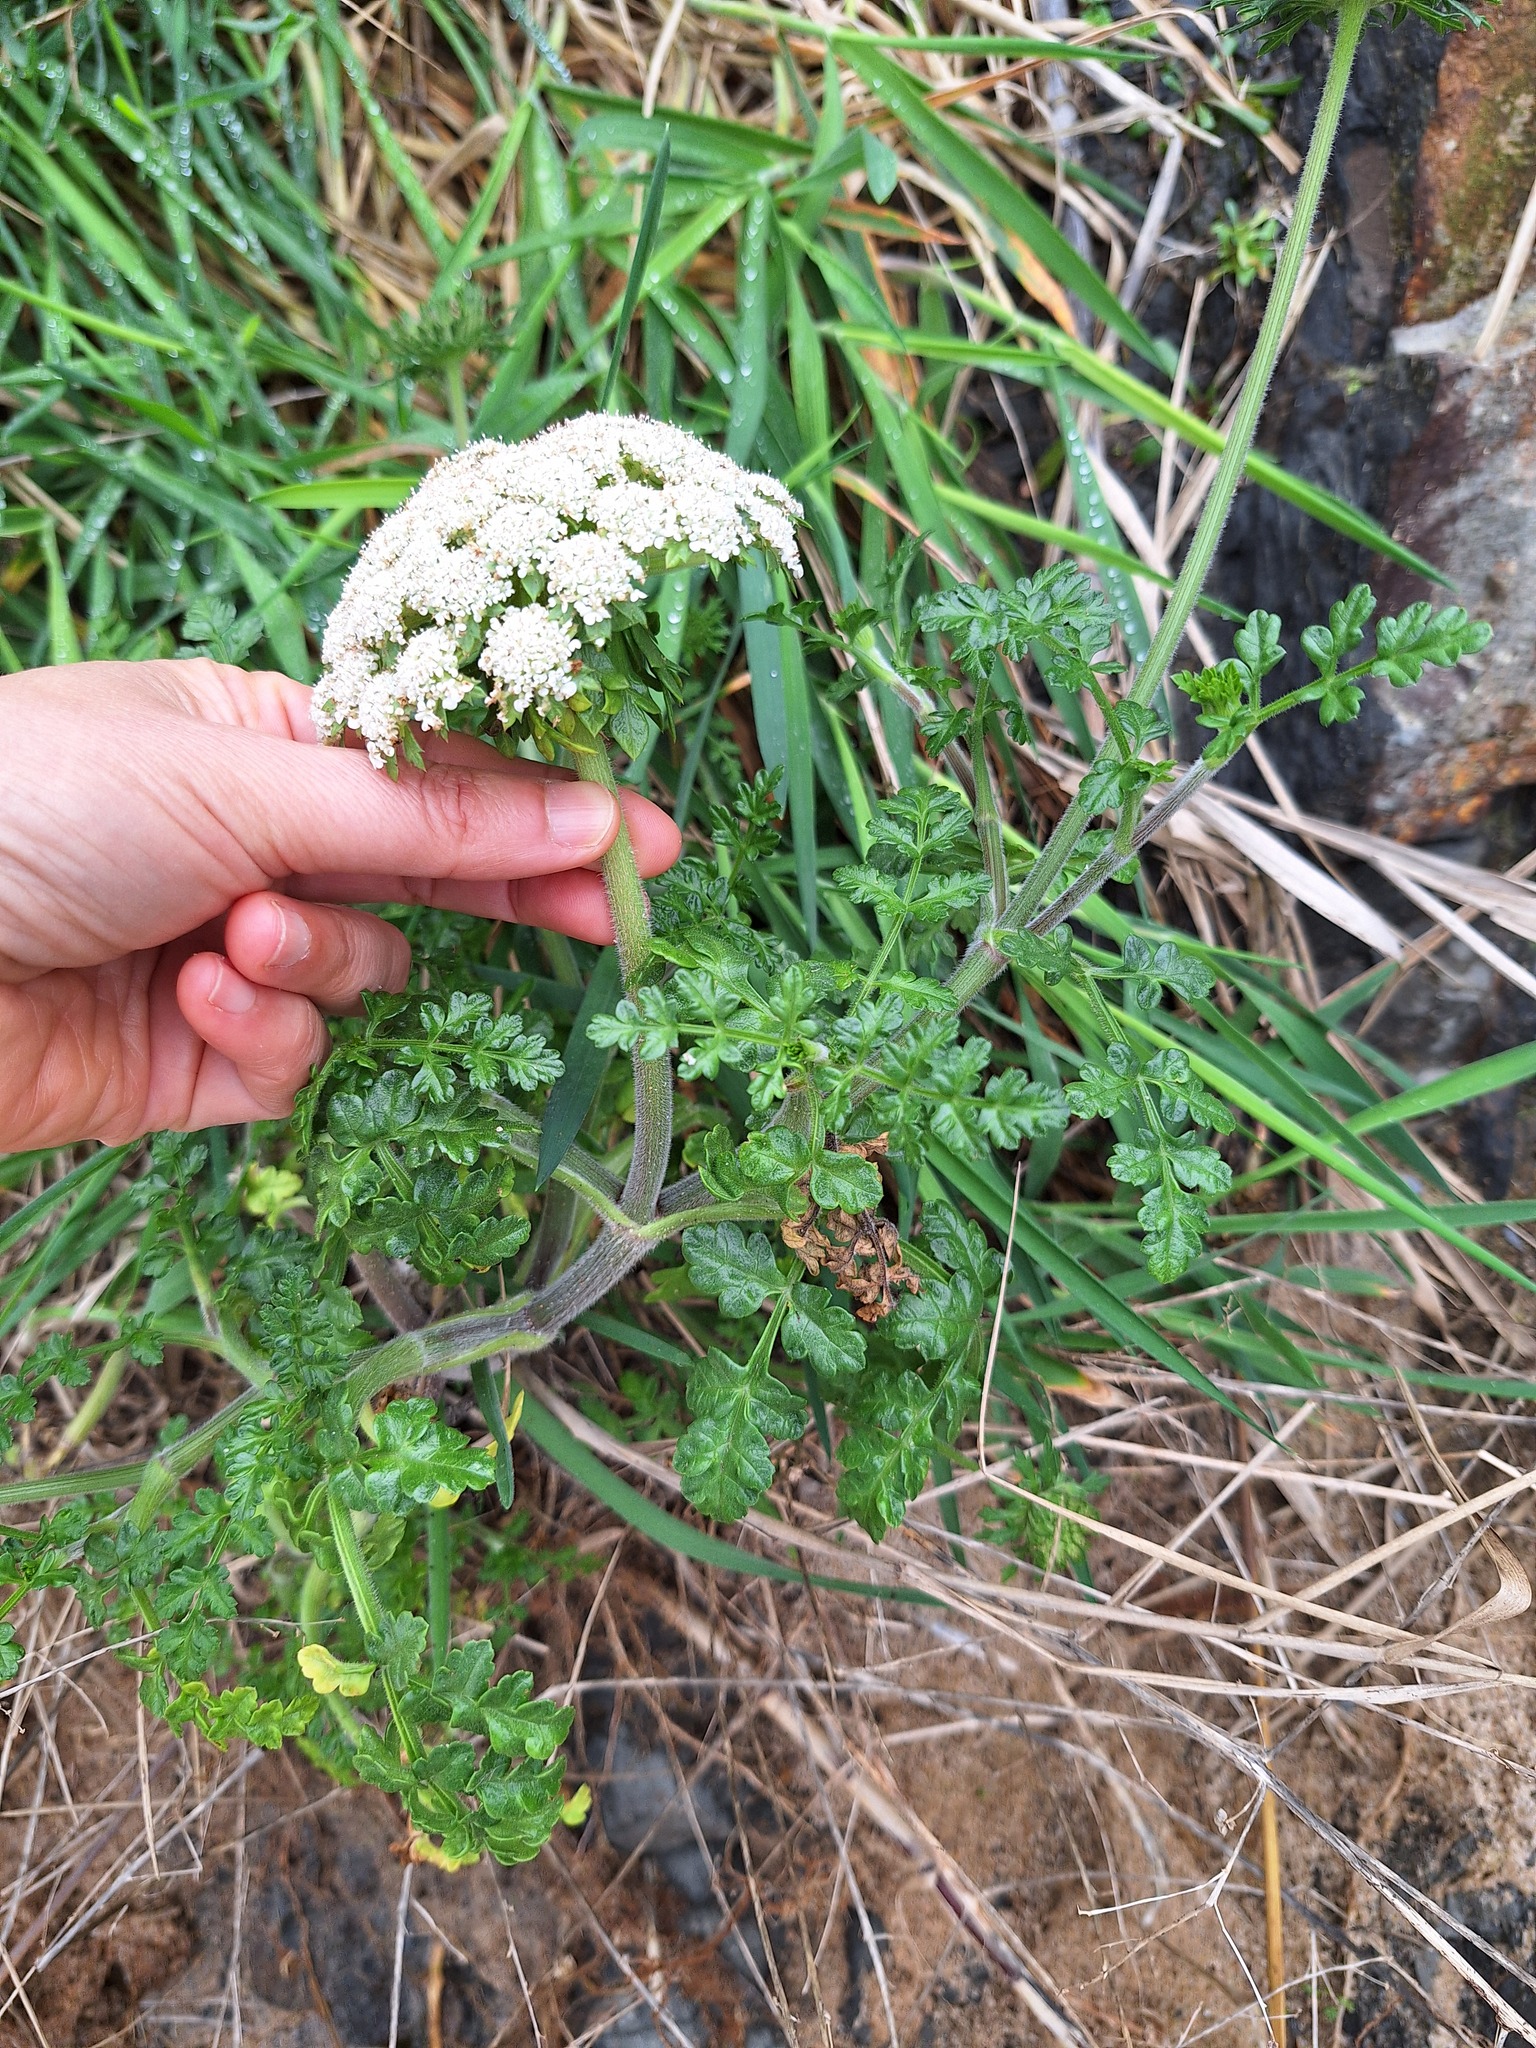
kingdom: Plantae
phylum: Tracheophyta
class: Magnoliopsida
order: Apiales
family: Apiaceae
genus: Daucus
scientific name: Daucus carota
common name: Wild carrot
